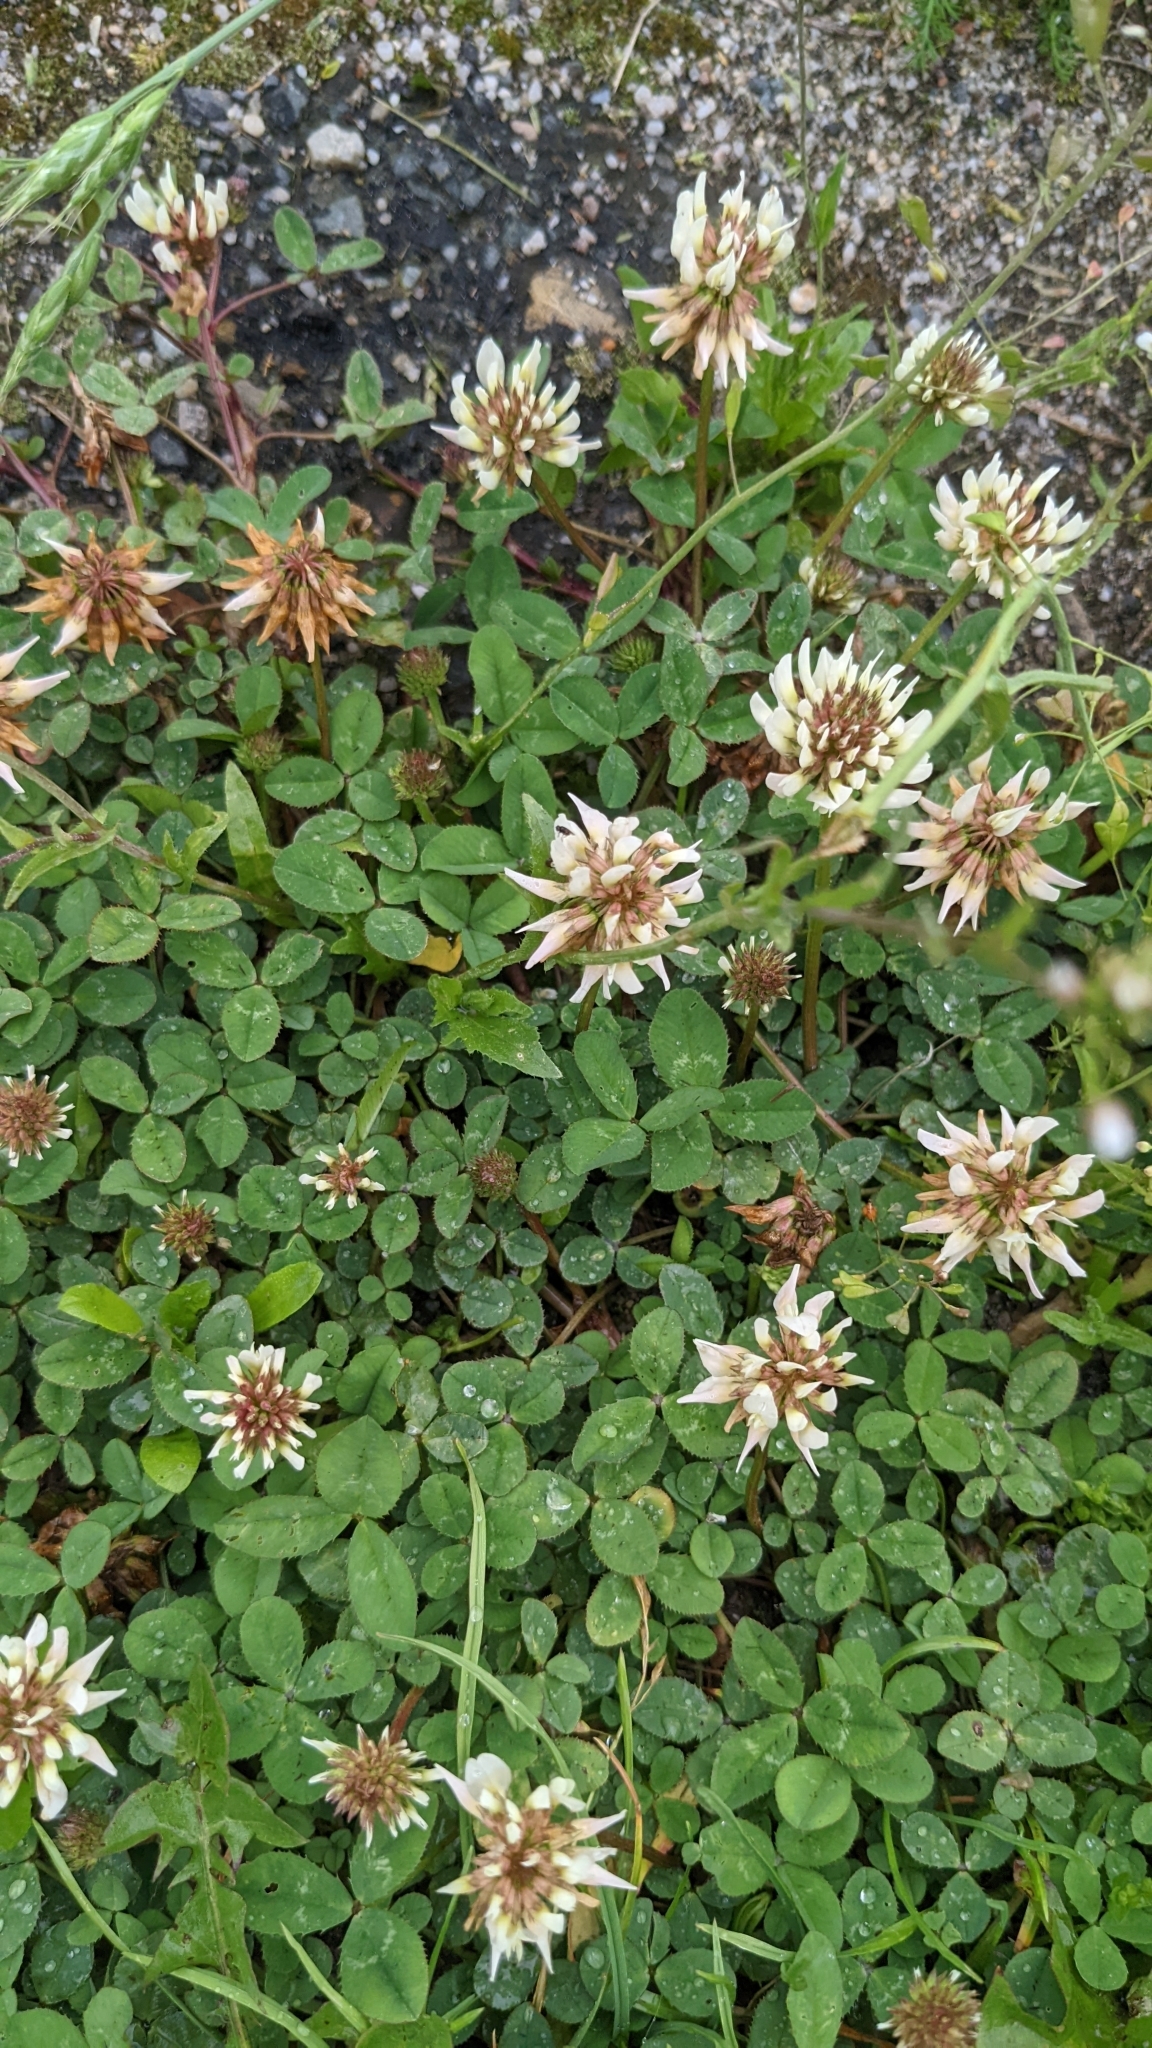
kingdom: Plantae
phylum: Tracheophyta
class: Magnoliopsida
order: Fabales
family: Fabaceae
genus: Trifolium
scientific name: Trifolium repens
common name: White clover
